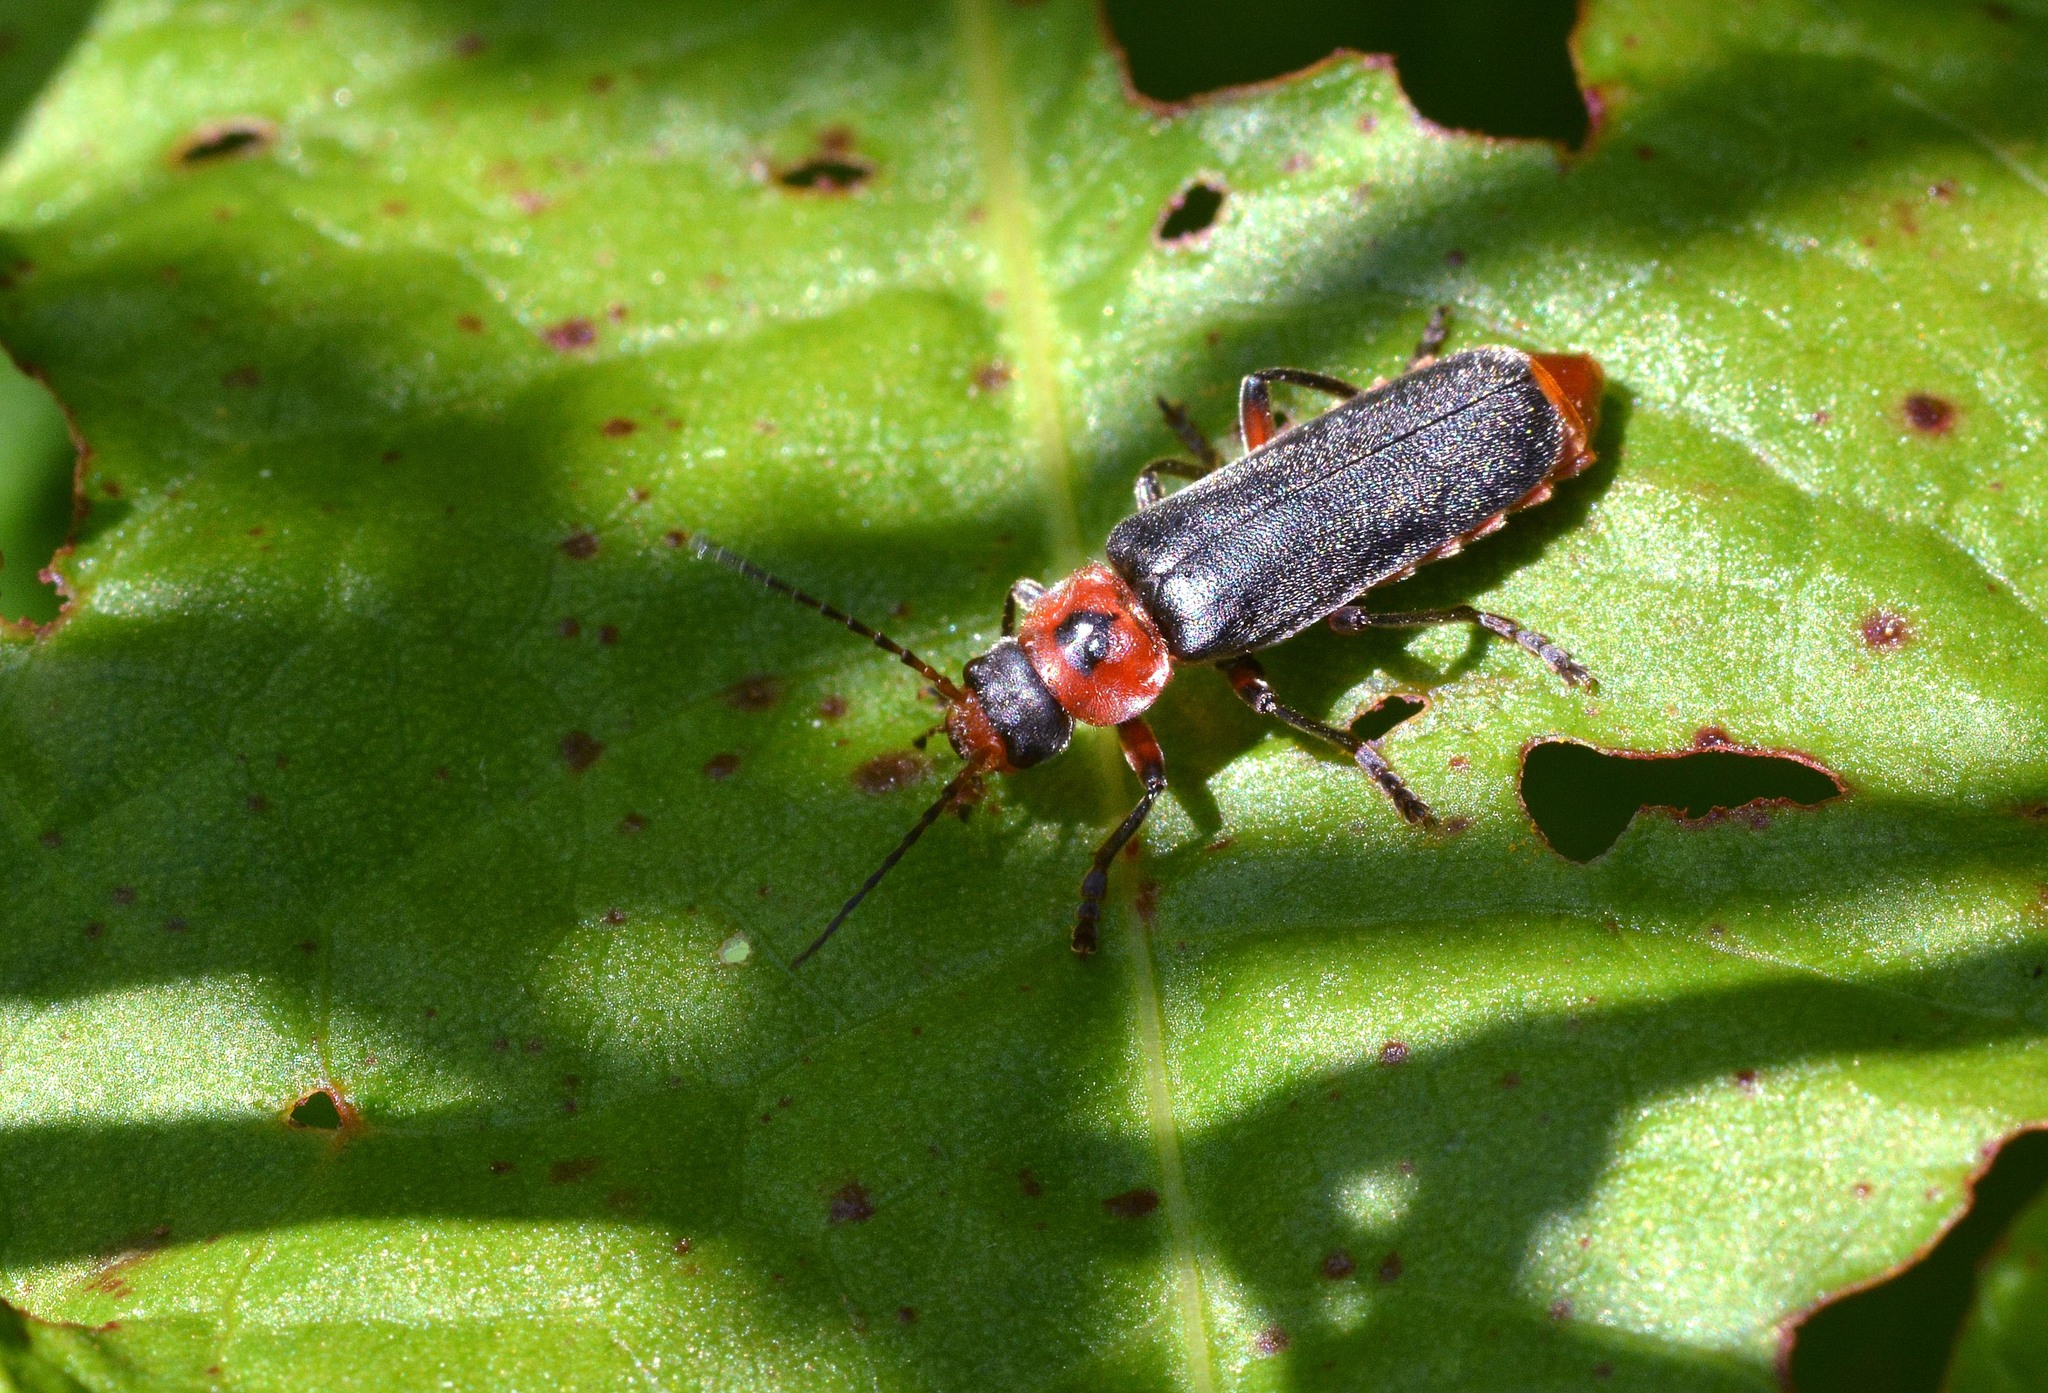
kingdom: Animalia
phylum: Arthropoda
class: Insecta
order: Coleoptera
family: Cantharidae
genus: Cantharis
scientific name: Cantharis rustica
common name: Soldier beetle
